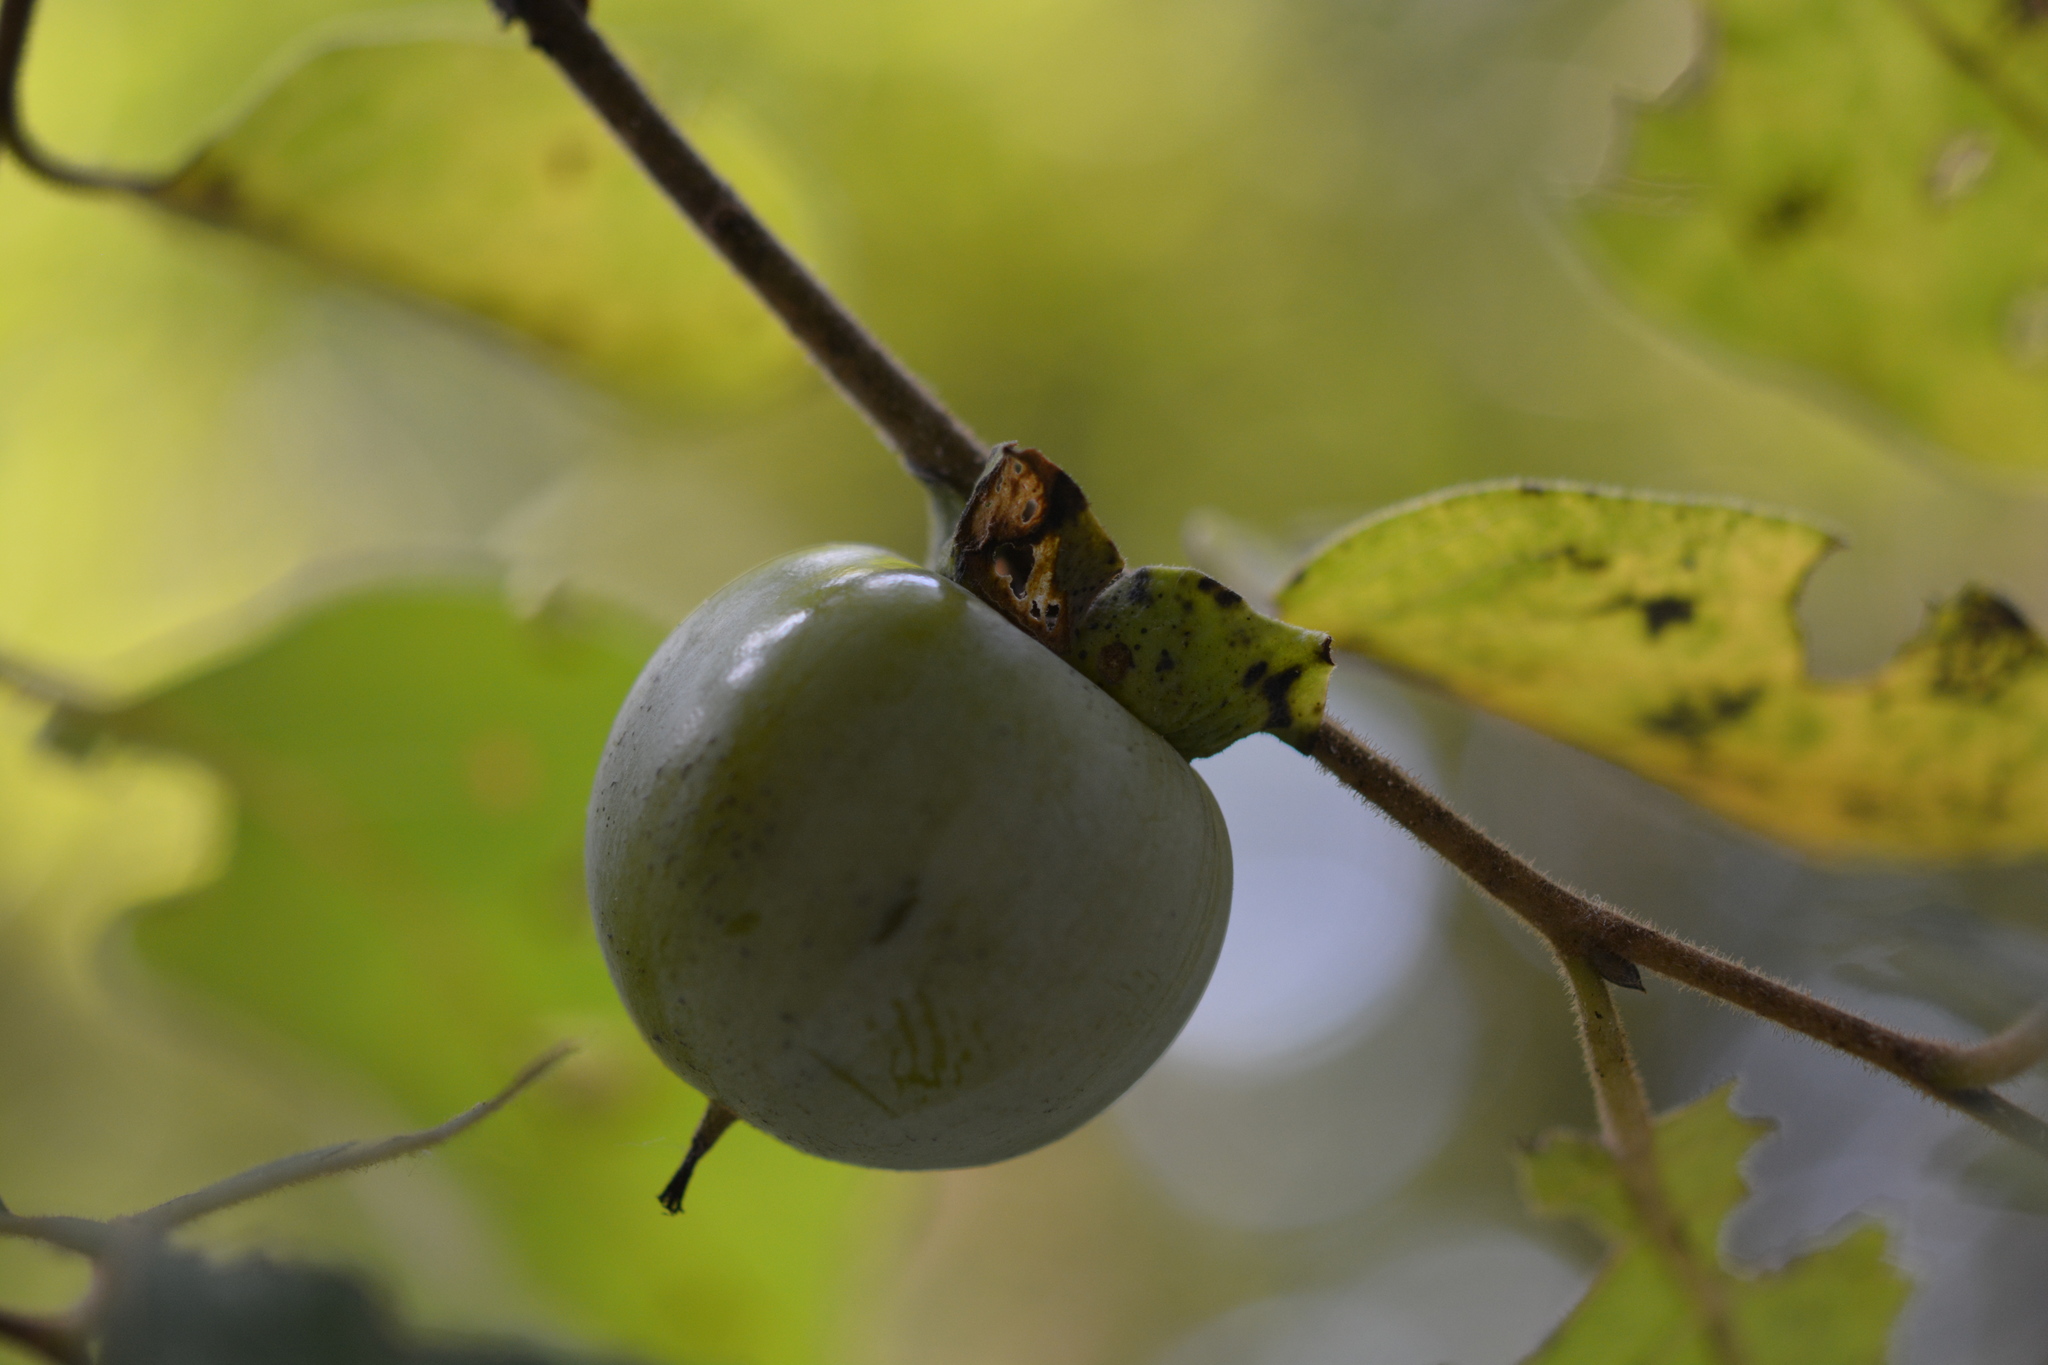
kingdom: Plantae
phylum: Tracheophyta
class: Magnoliopsida
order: Ericales
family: Ebenaceae
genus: Diospyros
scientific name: Diospyros virginiana
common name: Persimmon
